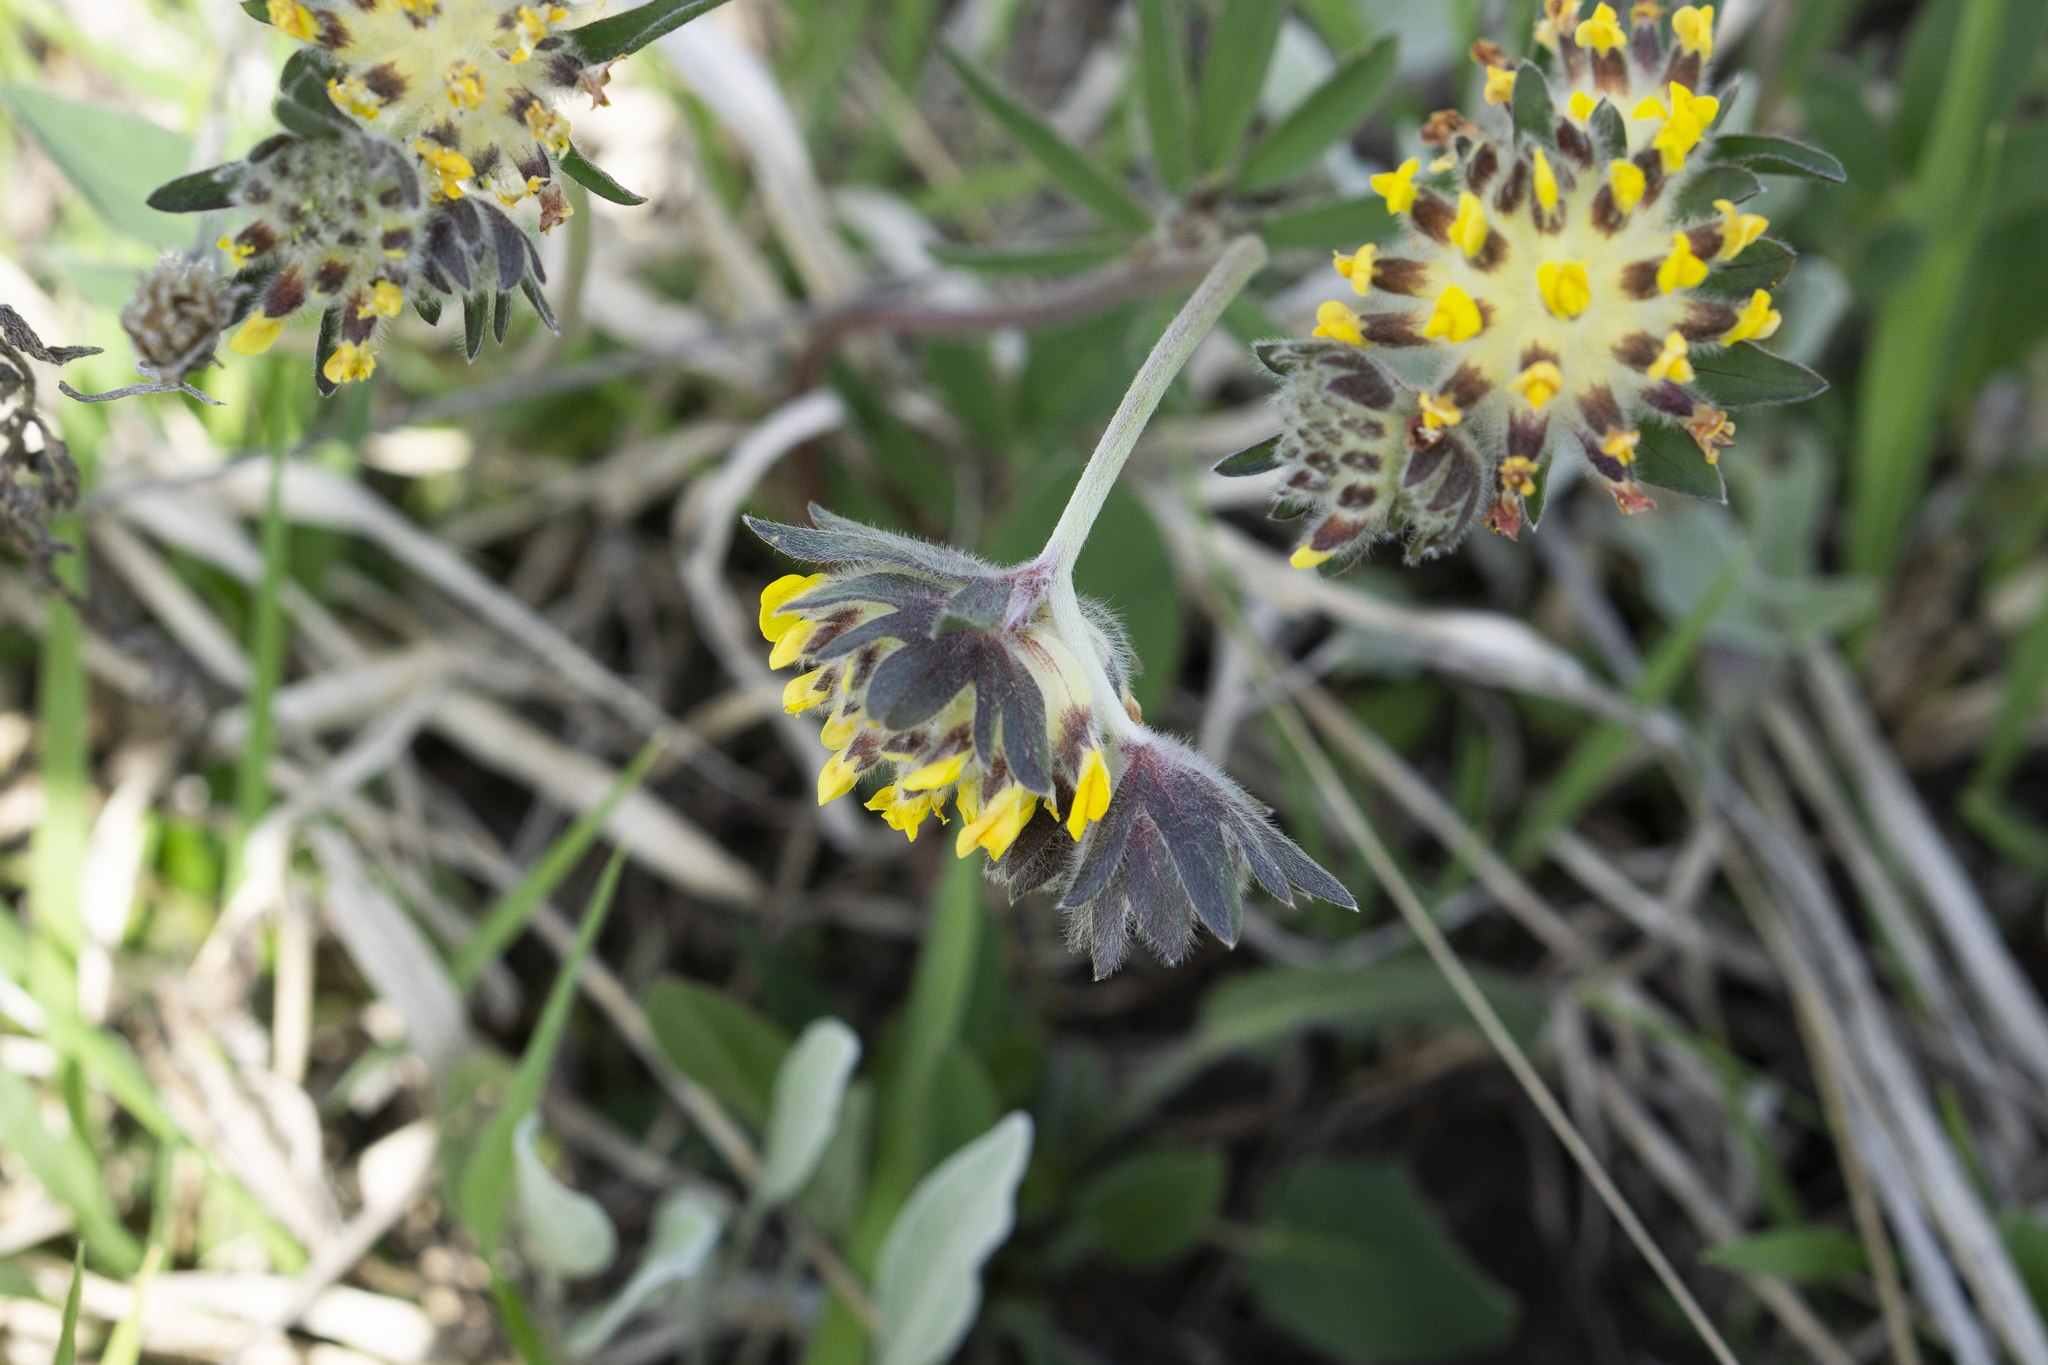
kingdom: Plantae
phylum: Tracheophyta
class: Magnoliopsida
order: Fabales
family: Fabaceae
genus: Anthyllis
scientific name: Anthyllis vulneraria
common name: Kidney vetch
